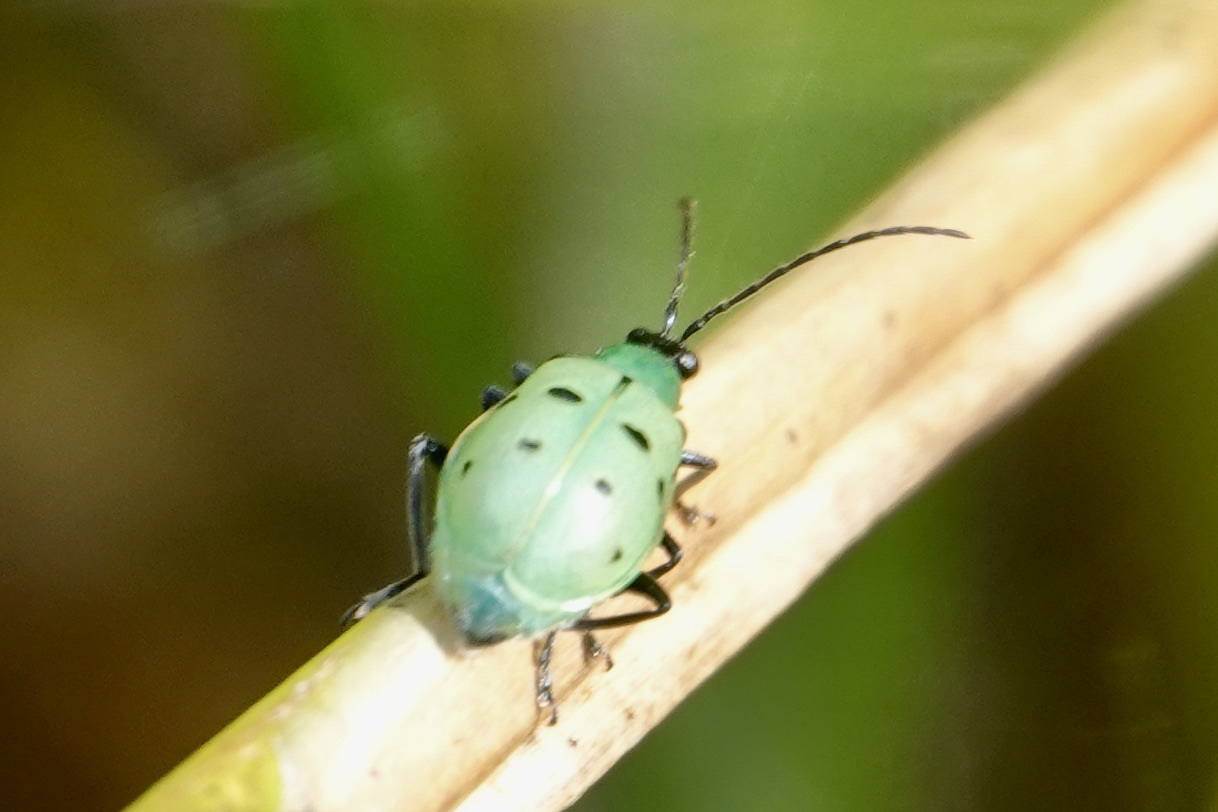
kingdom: Animalia
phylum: Arthropoda
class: Insecta
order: Coleoptera
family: Chrysomelidae
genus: Diabrotica
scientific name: Diabrotica decempunctata
